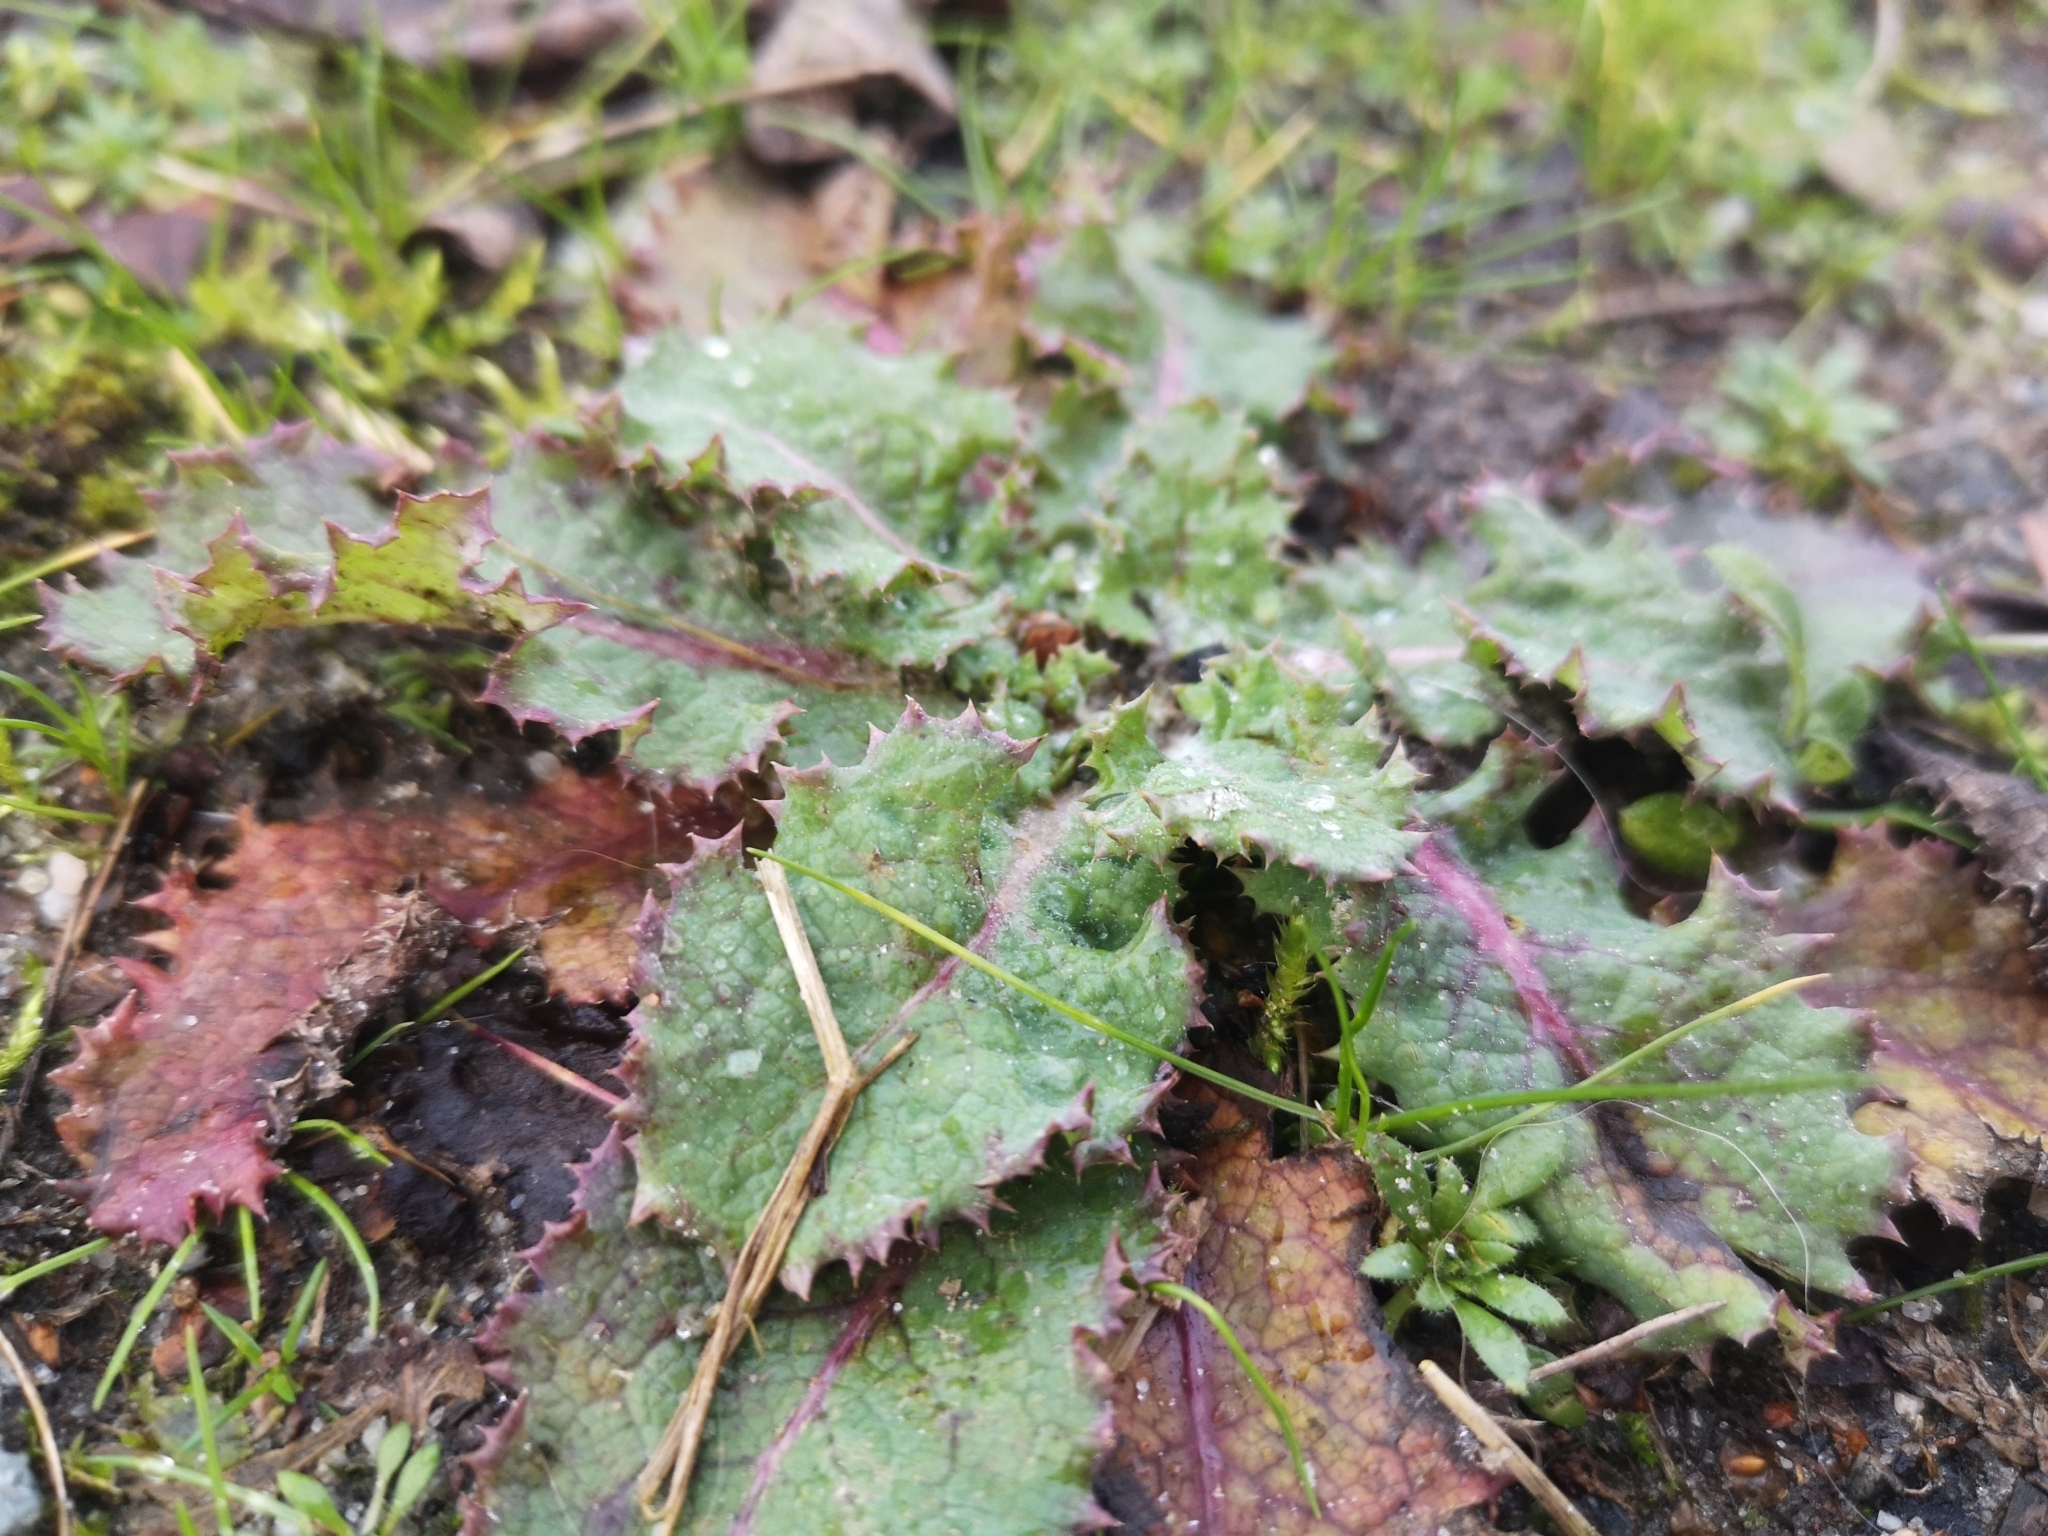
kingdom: Plantae
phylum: Tracheophyta
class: Magnoliopsida
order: Asterales
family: Asteraceae
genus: Sonchus
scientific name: Sonchus oleraceus
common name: Common sowthistle
